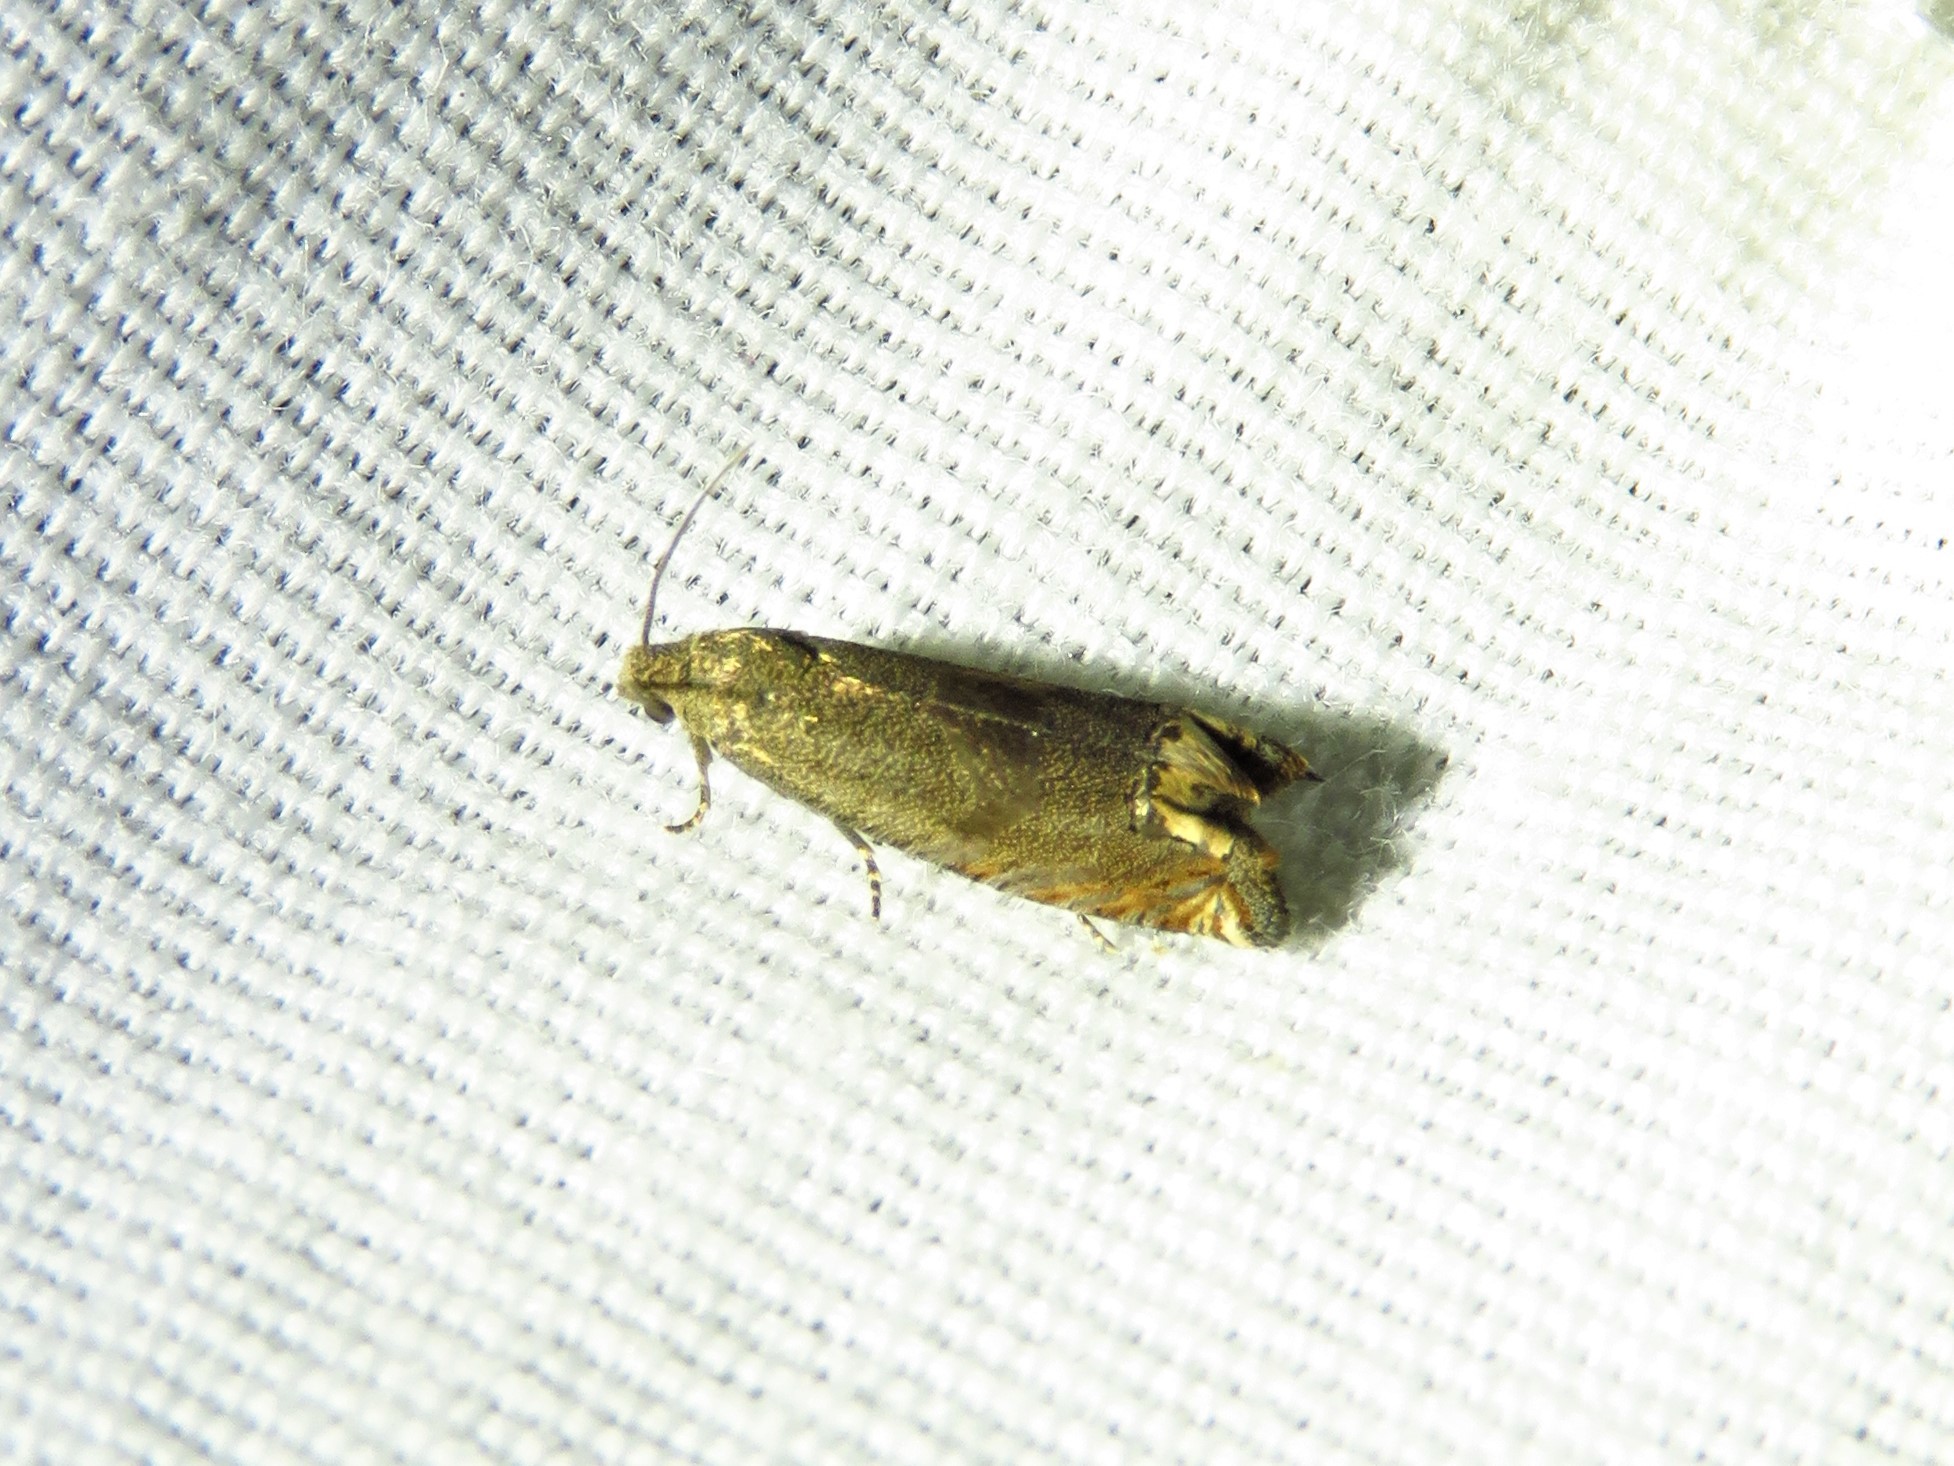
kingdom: Animalia
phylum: Arthropoda
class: Insecta
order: Lepidoptera
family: Tortricidae
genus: Epiblema
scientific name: Epiblema strenuana
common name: Ragweed borer moth
